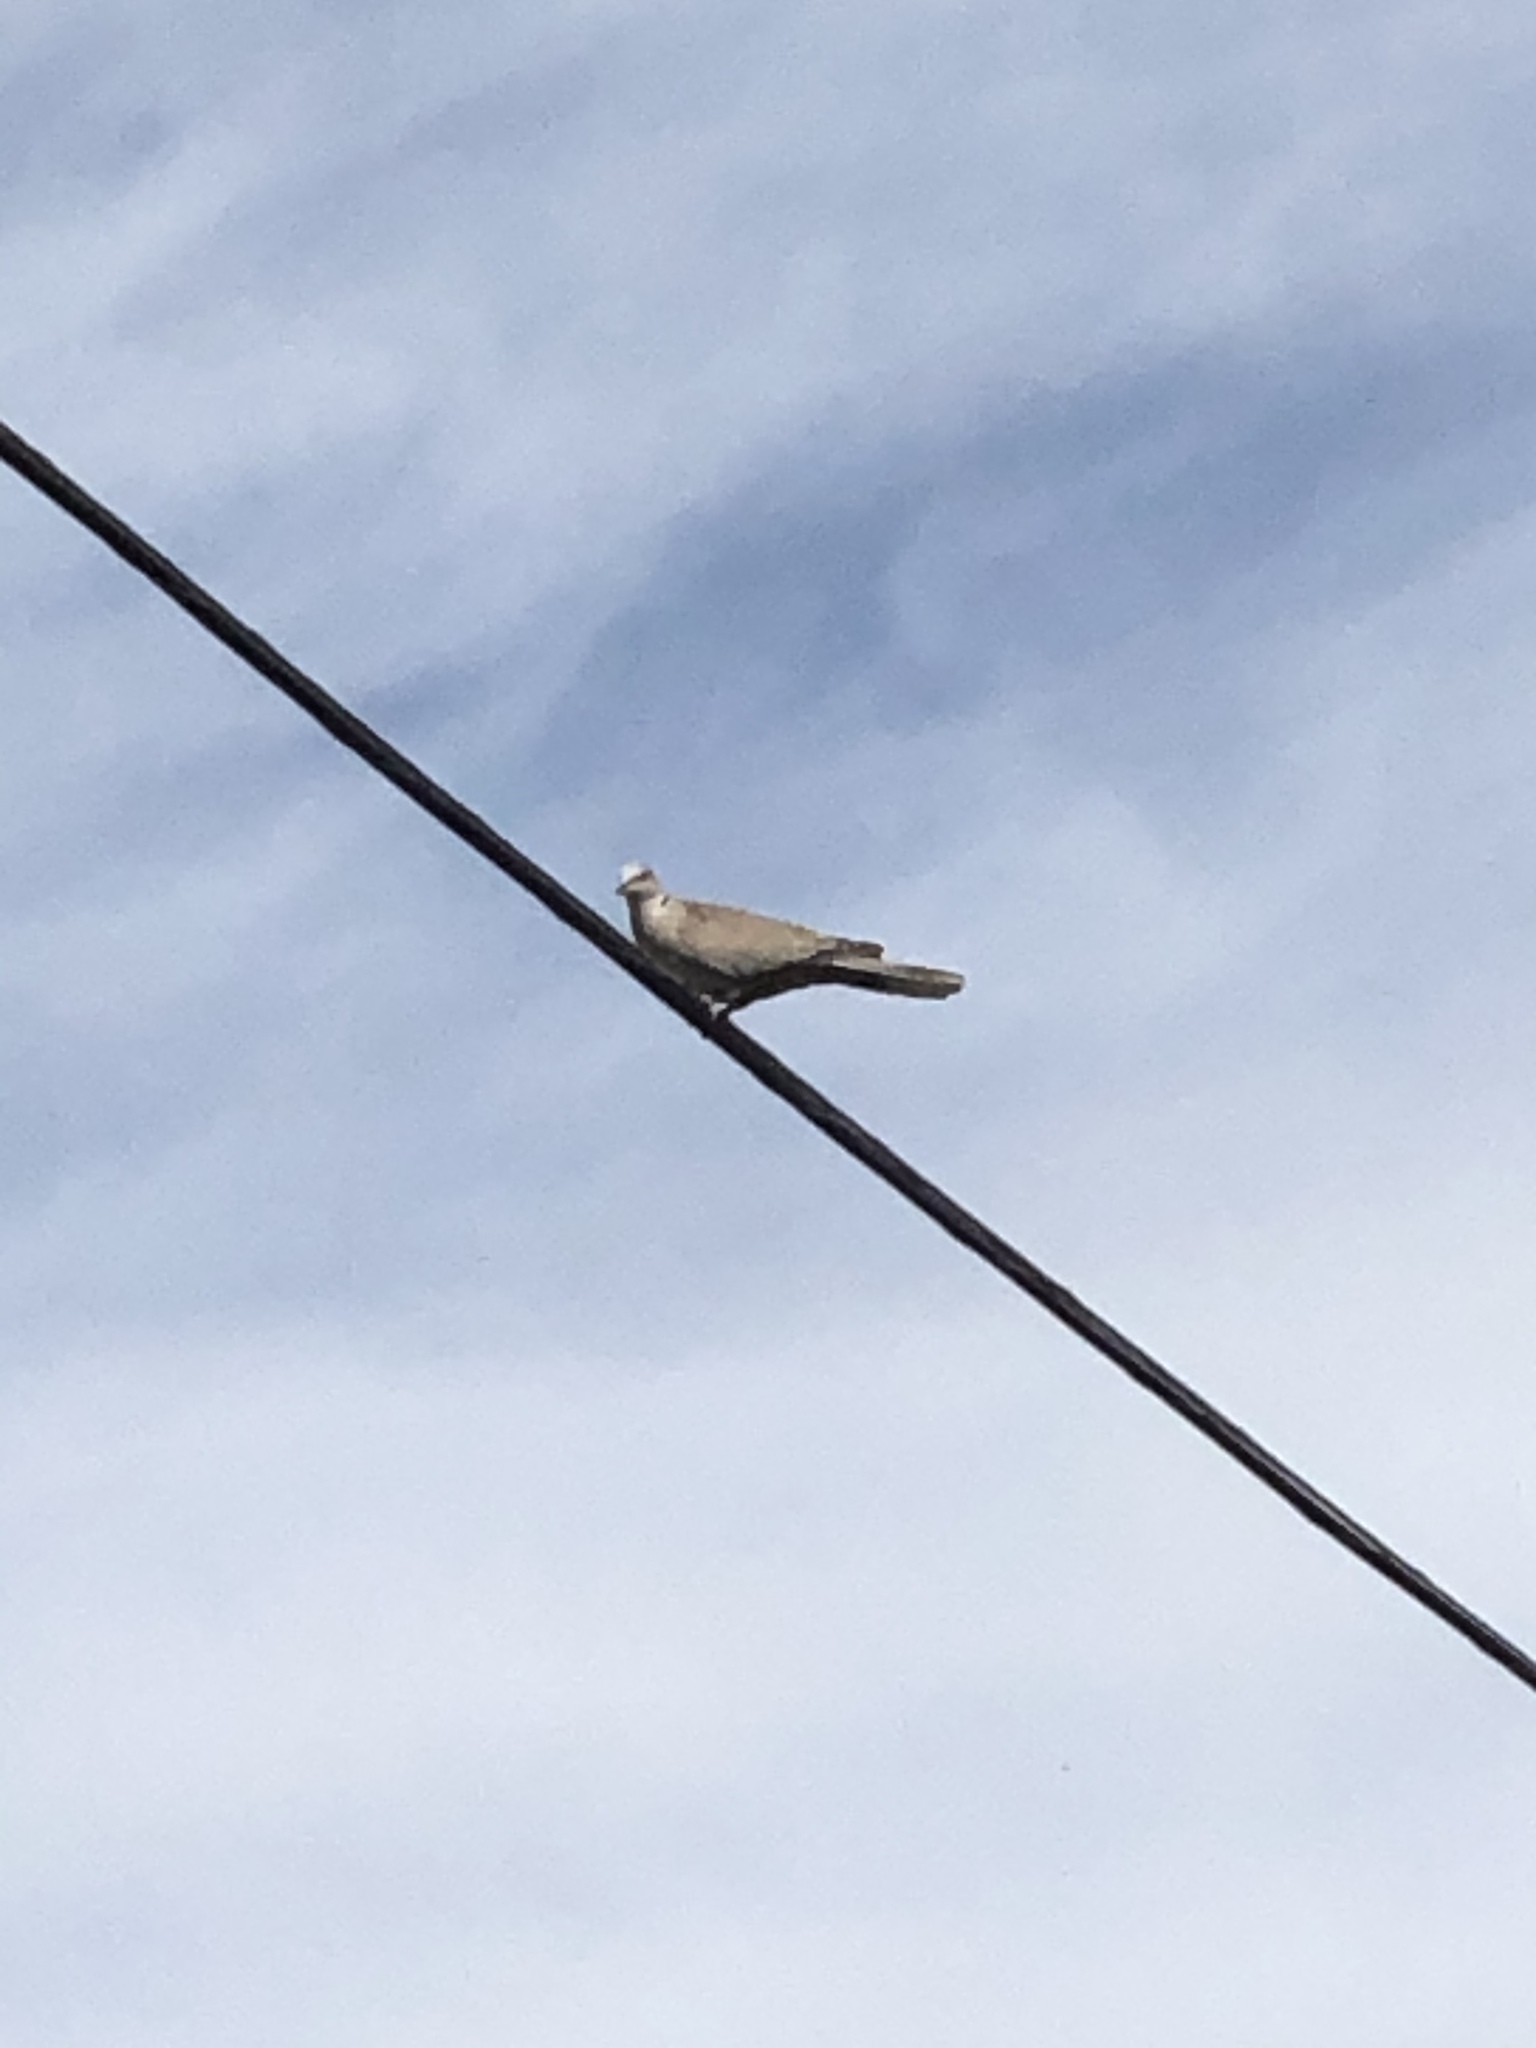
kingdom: Animalia
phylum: Chordata
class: Aves
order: Columbiformes
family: Columbidae
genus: Streptopelia
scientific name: Streptopelia decaocto
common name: Eurasian collared dove
